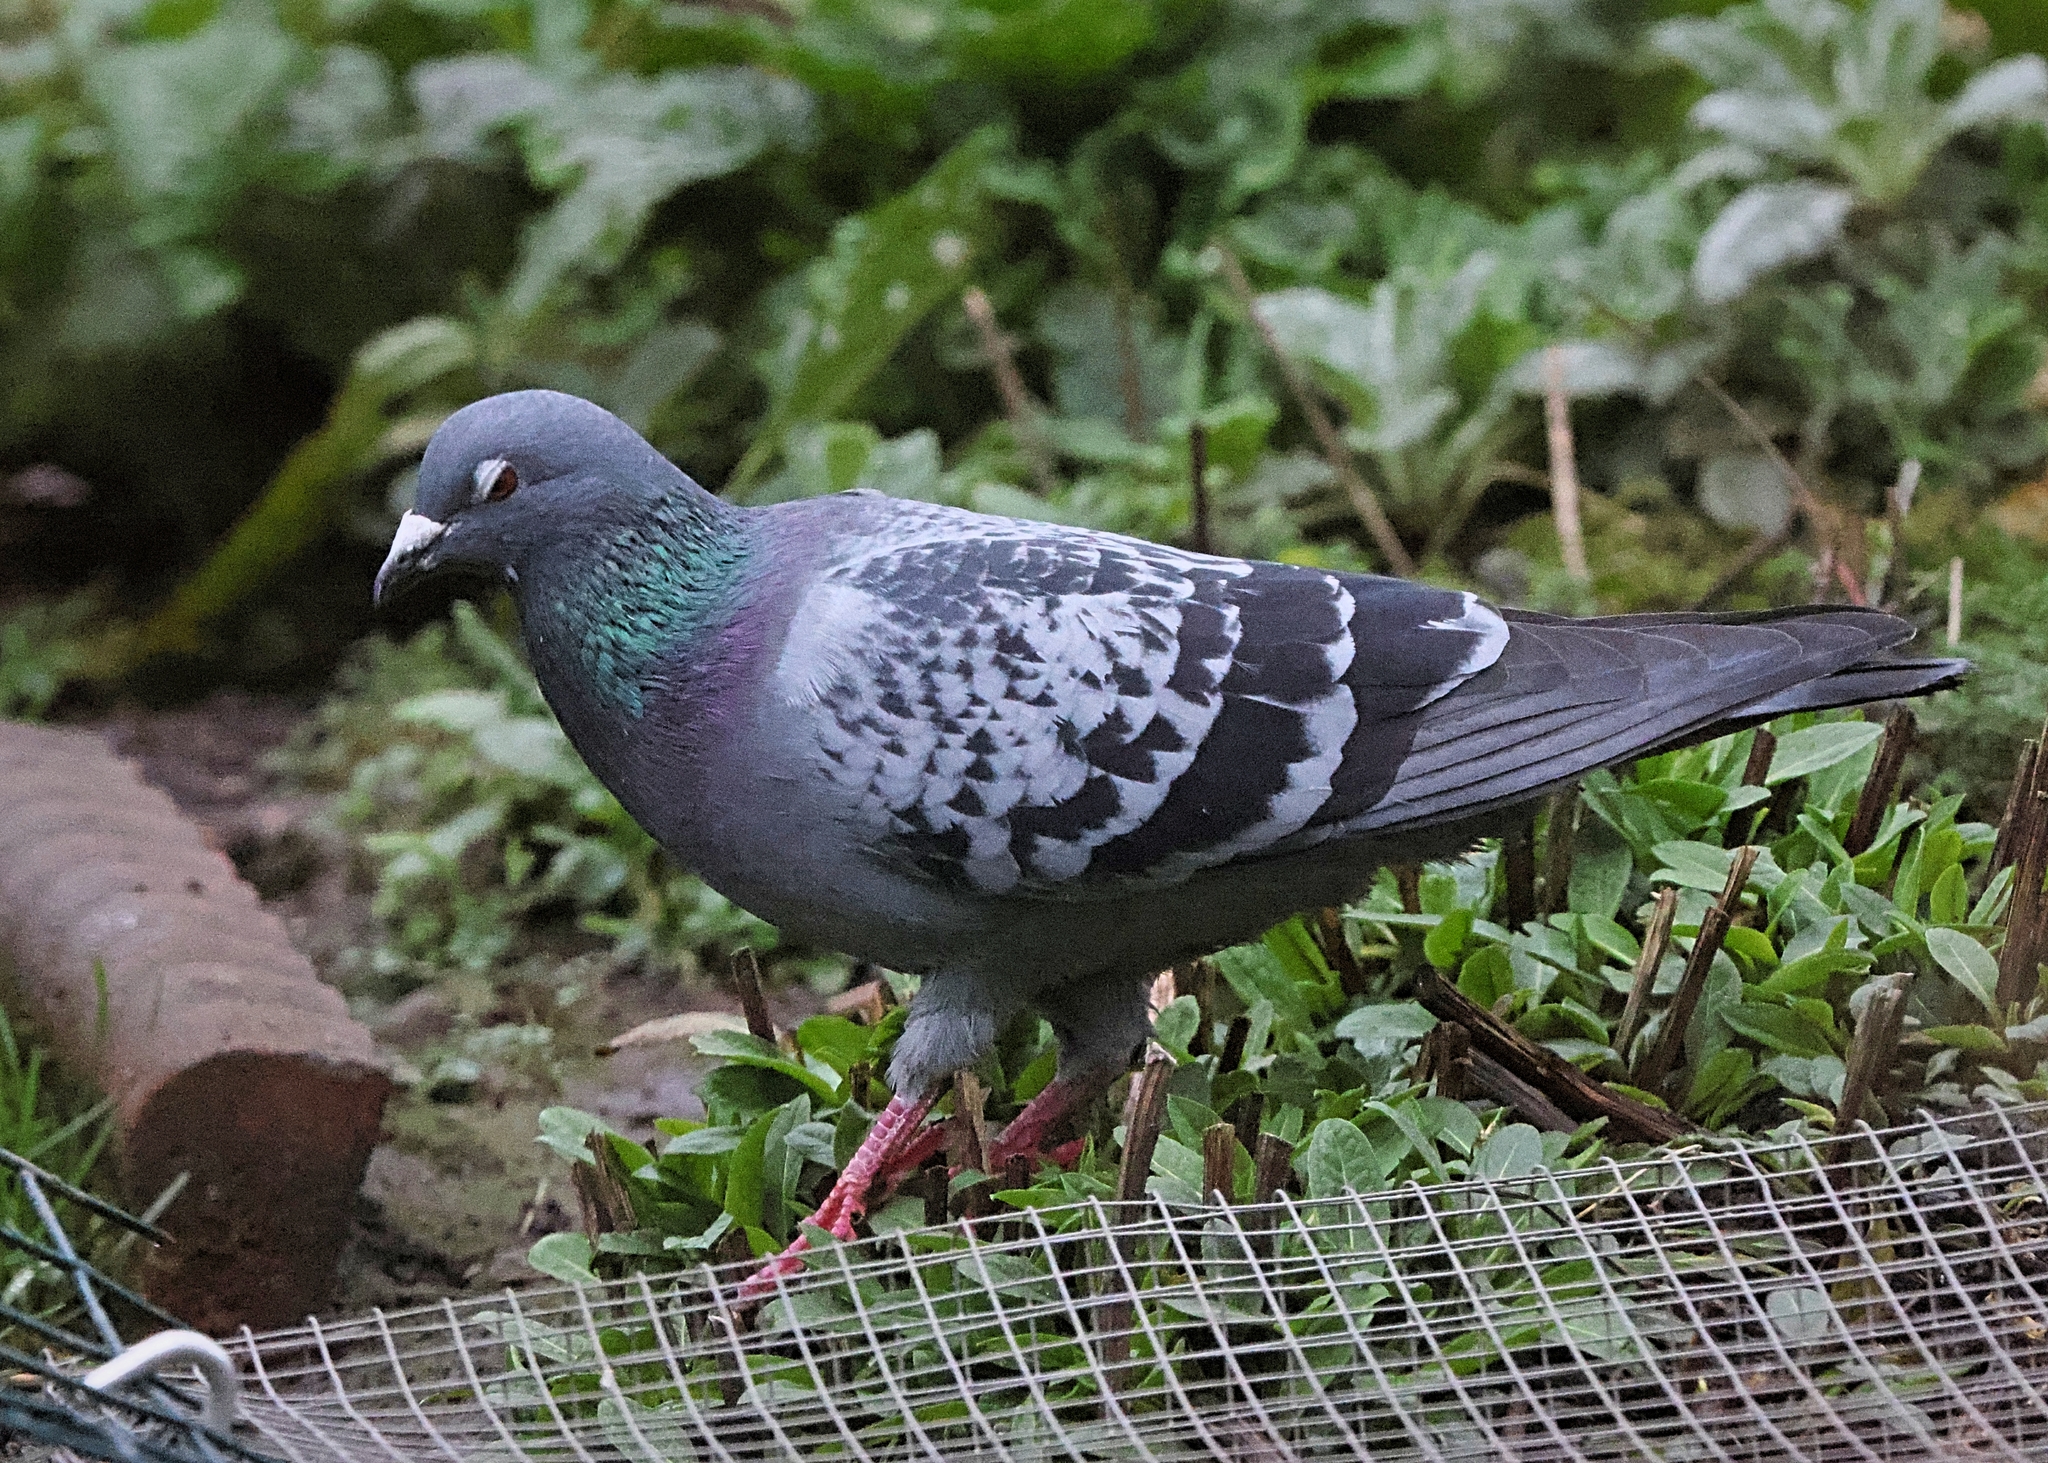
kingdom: Animalia
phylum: Chordata
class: Aves
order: Columbiformes
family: Columbidae
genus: Columba
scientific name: Columba livia
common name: Rock pigeon
